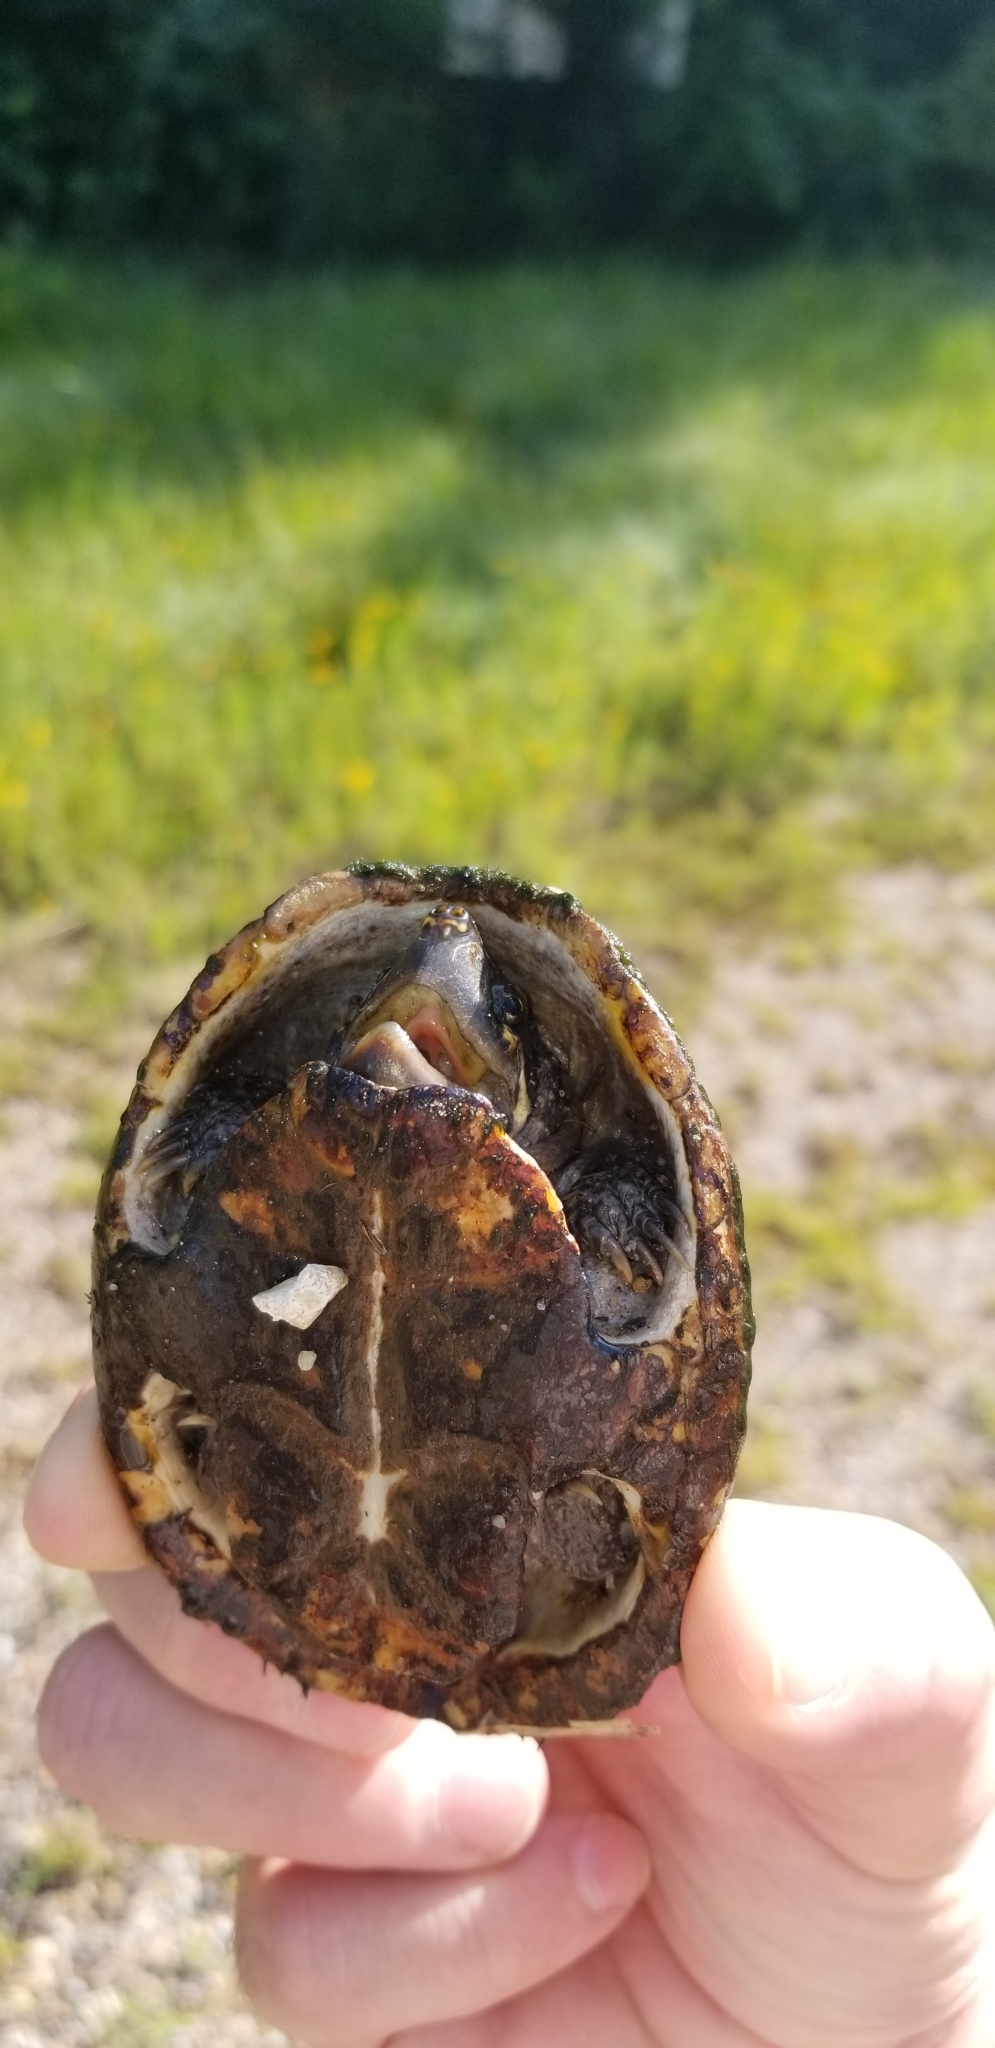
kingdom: Animalia
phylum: Chordata
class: Testudines
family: Kinosternidae
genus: Sternotherus
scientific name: Sternotherus odoratus
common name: Common musk turtle
